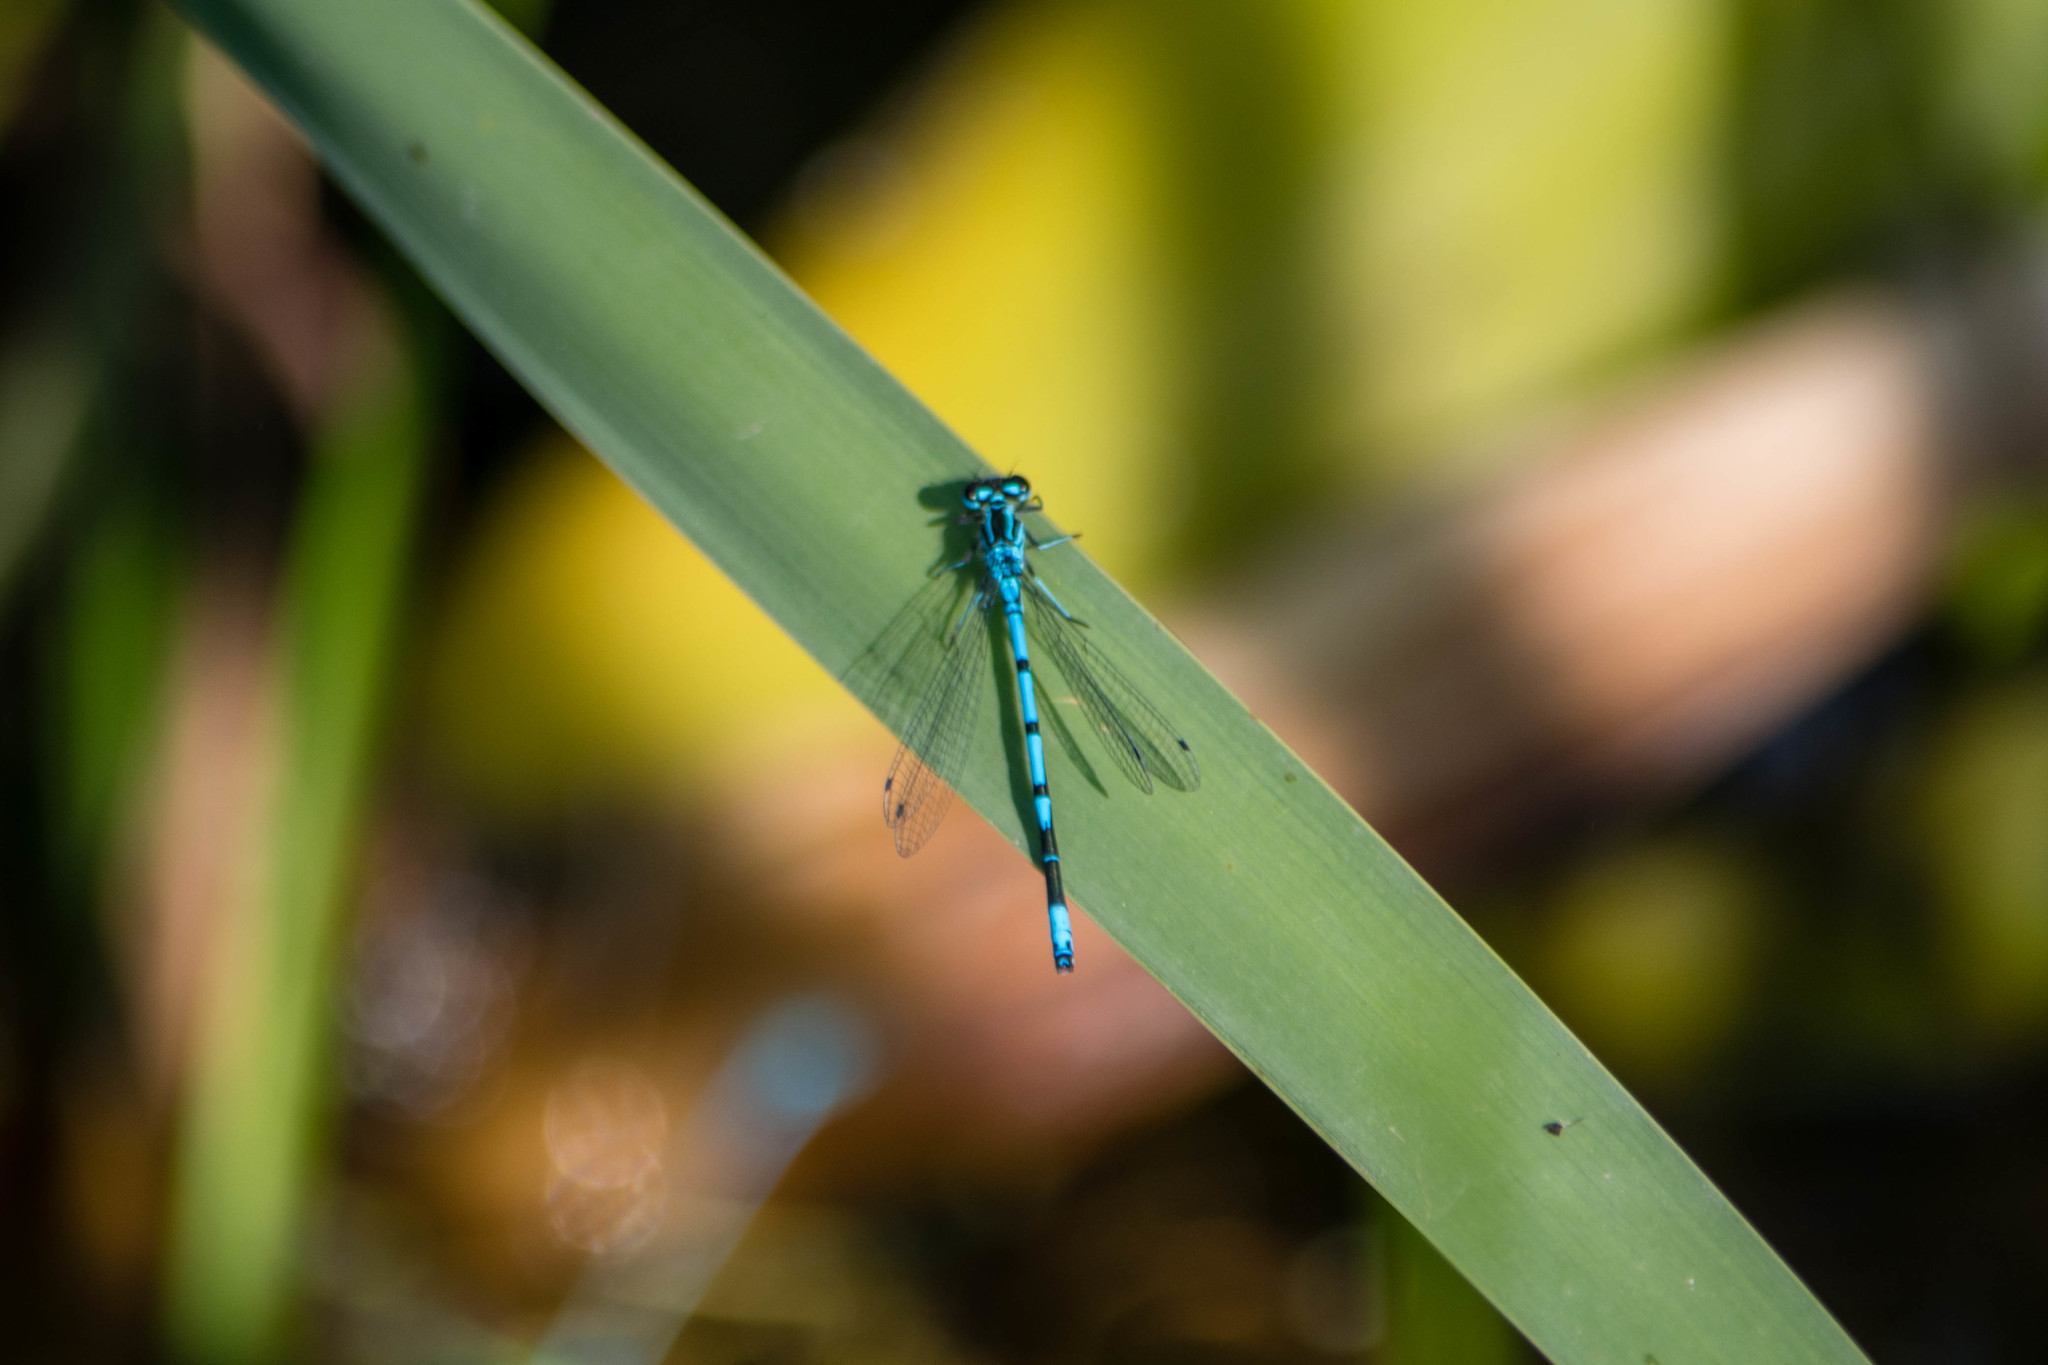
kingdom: Animalia
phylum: Arthropoda
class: Insecta
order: Odonata
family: Coenagrionidae
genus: Coenagrion
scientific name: Coenagrion puella
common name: Azure damselfly
